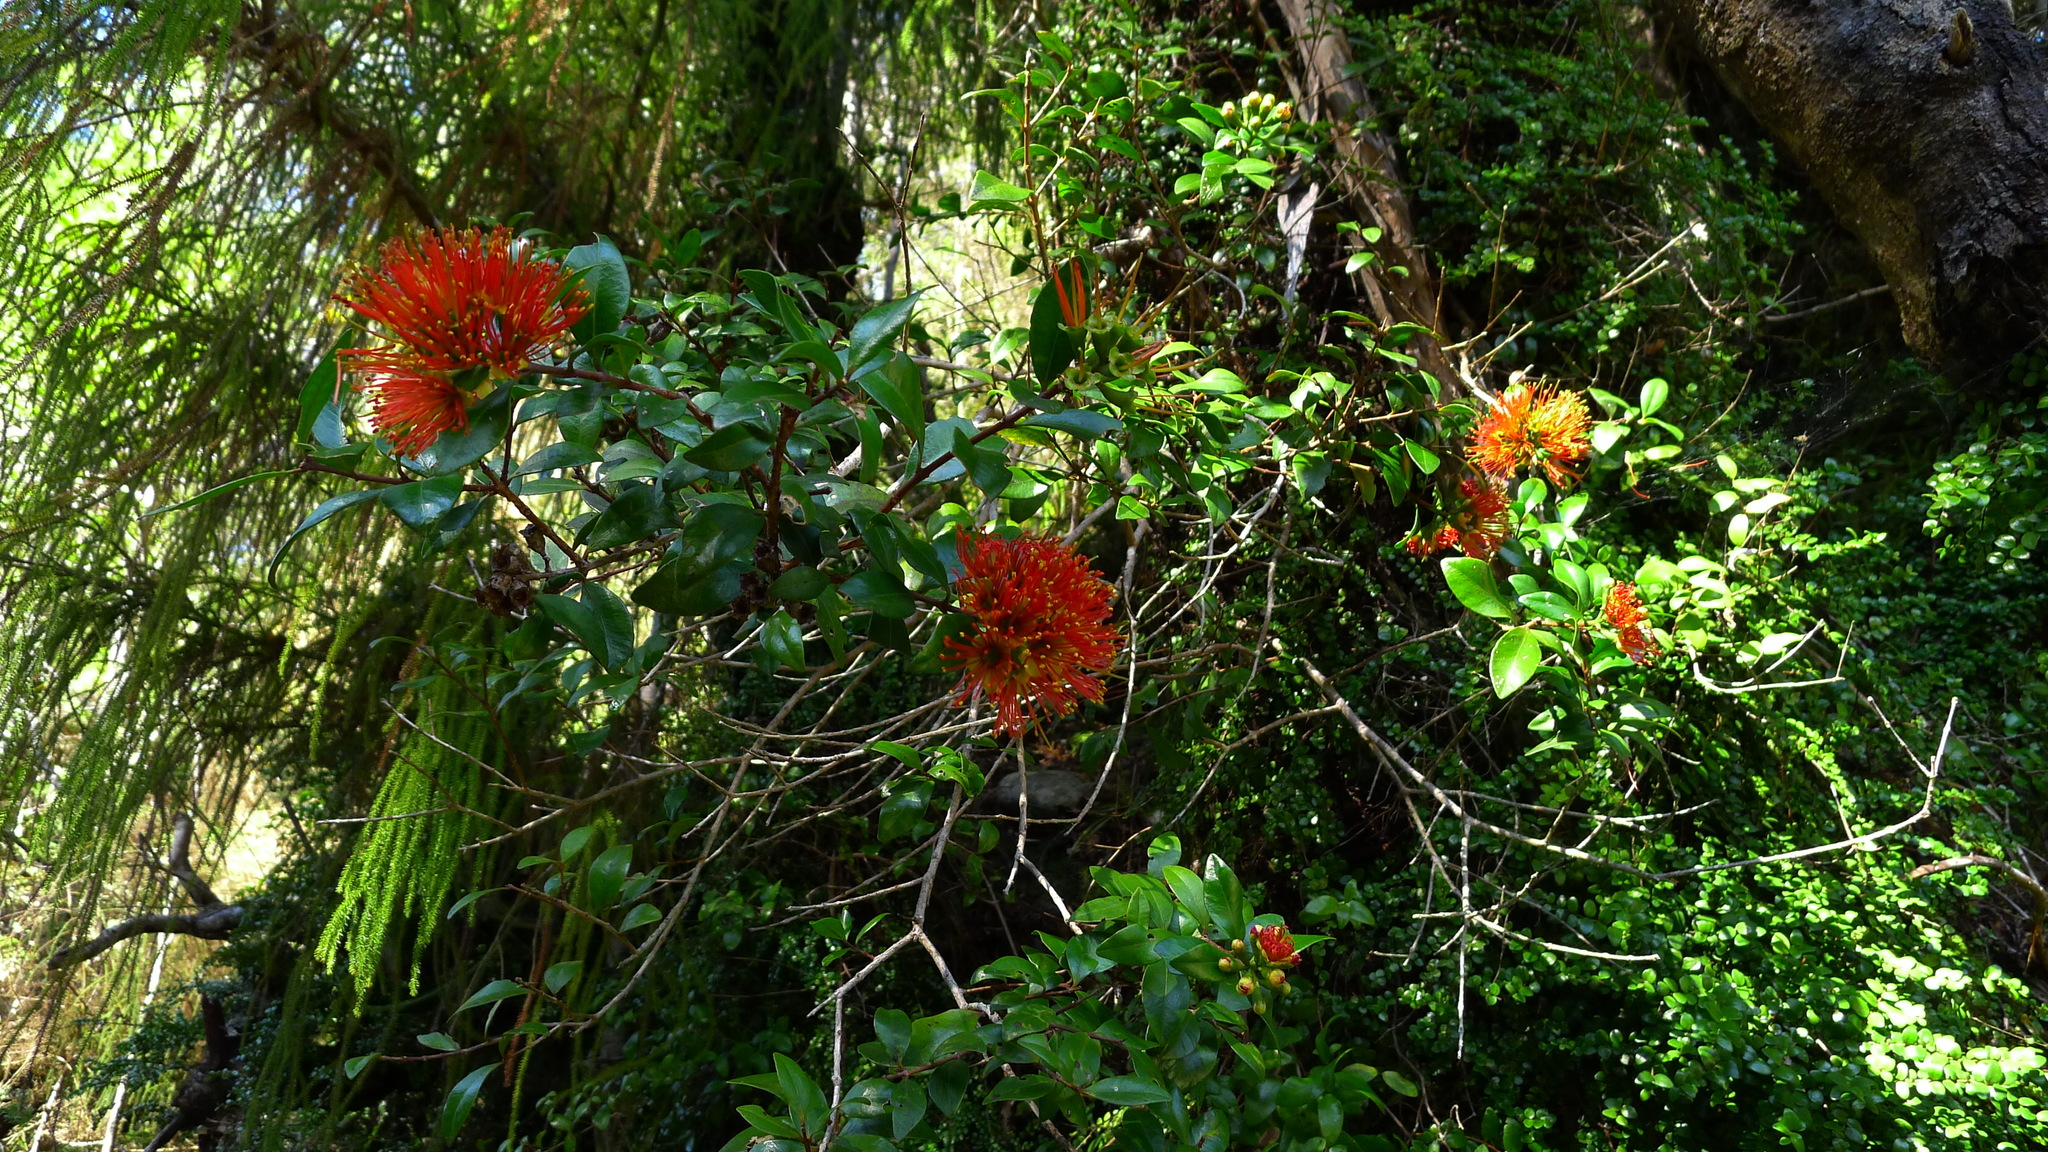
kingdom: Plantae
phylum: Tracheophyta
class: Magnoliopsida
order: Myrtales
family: Myrtaceae
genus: Metrosideros
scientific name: Metrosideros fulgens
